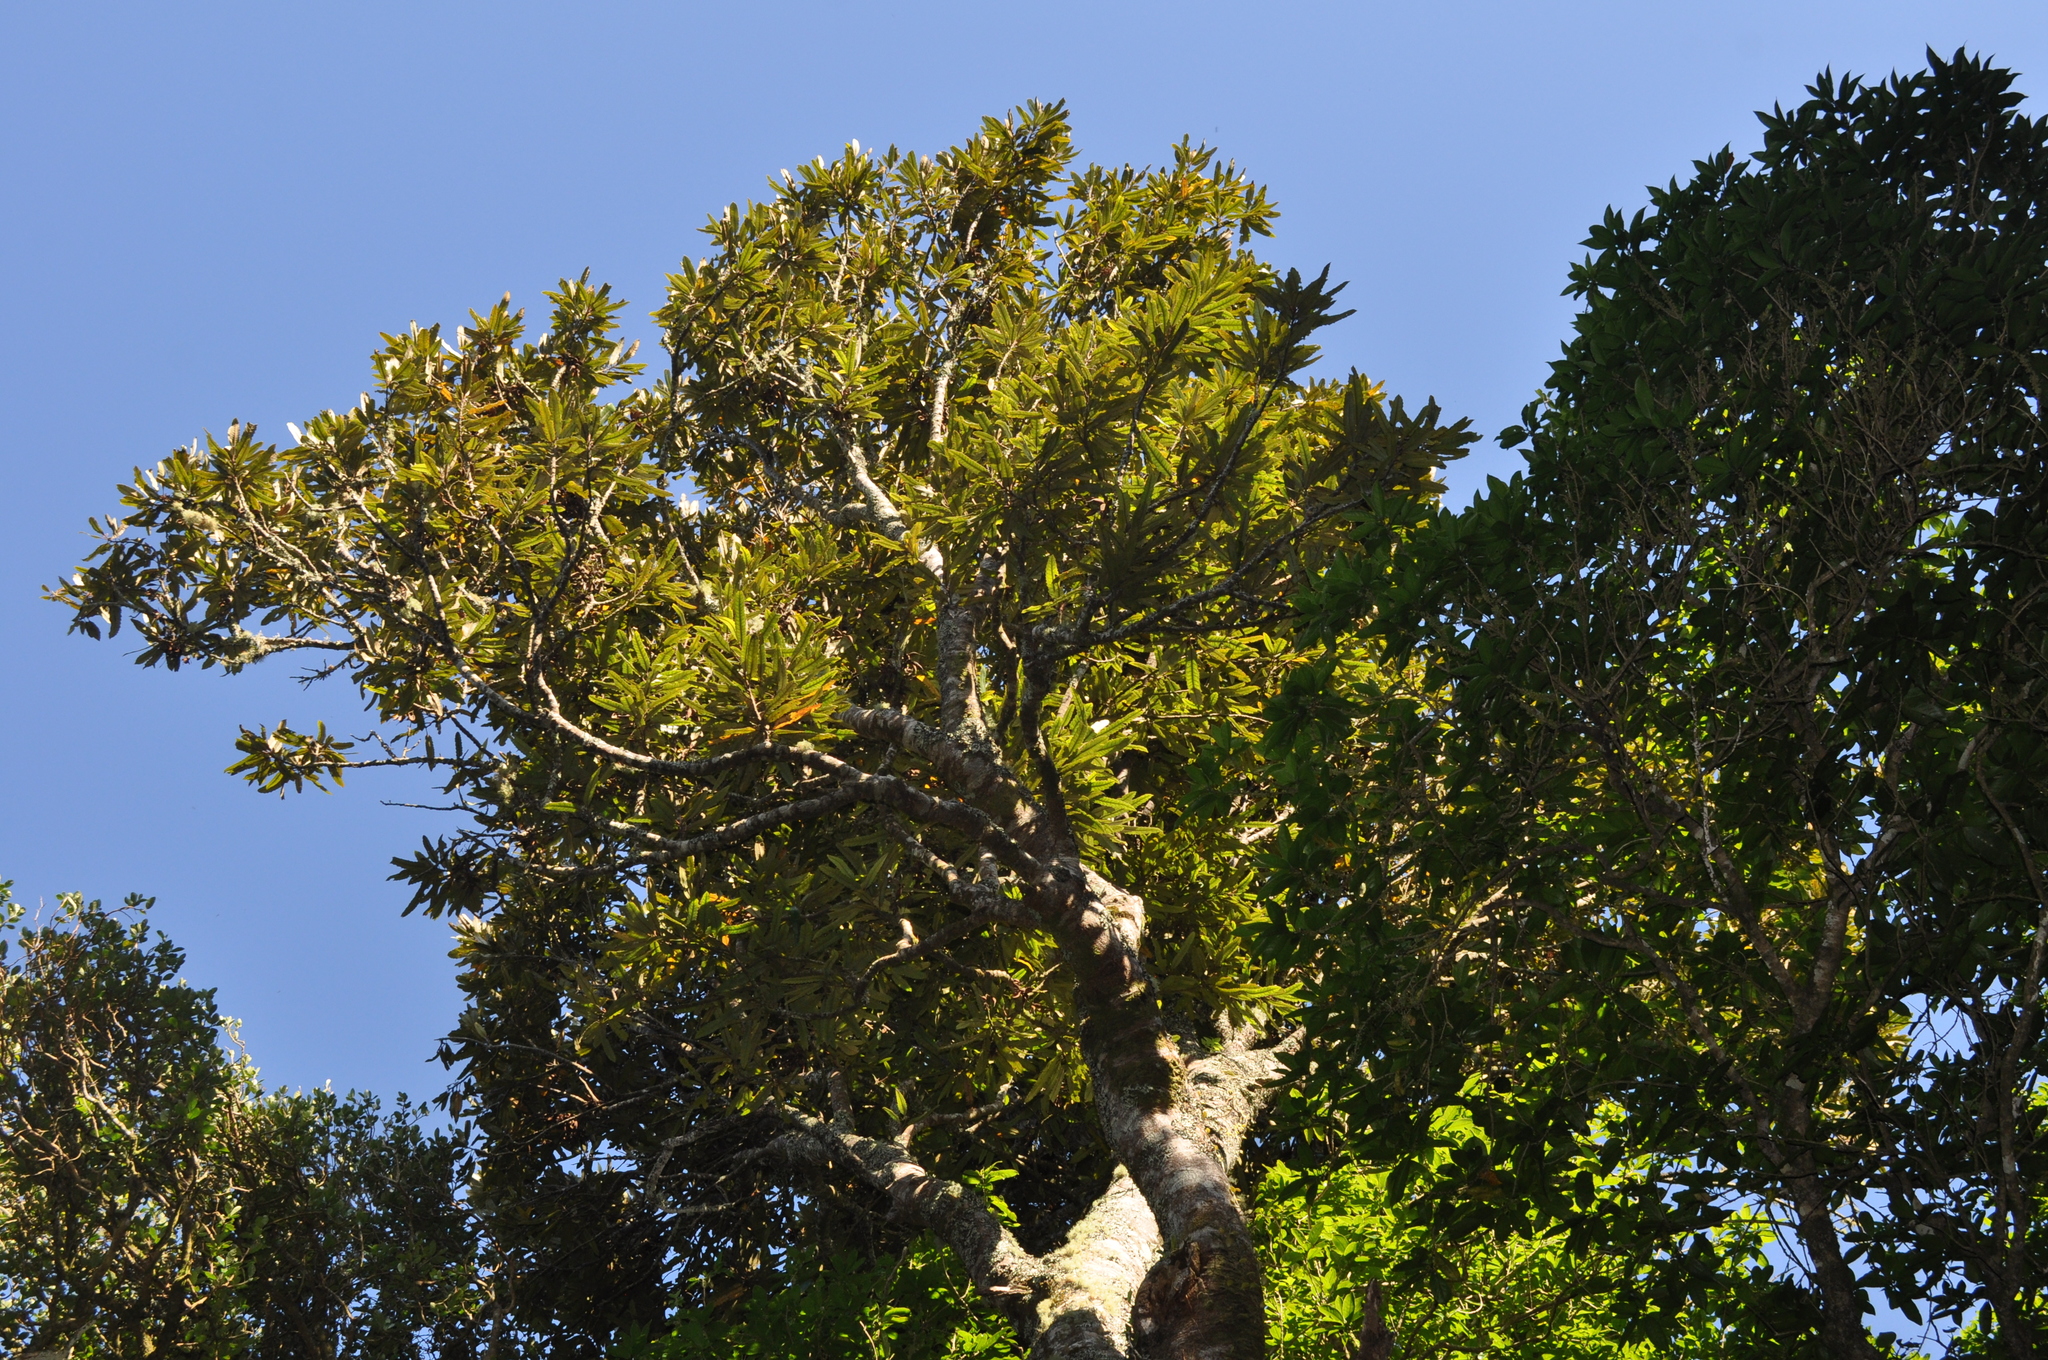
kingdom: Plantae
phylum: Tracheophyta
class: Magnoliopsida
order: Proteales
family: Proteaceae
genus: Knightia
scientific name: Knightia excelsa
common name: New zealand-honeysuckle
